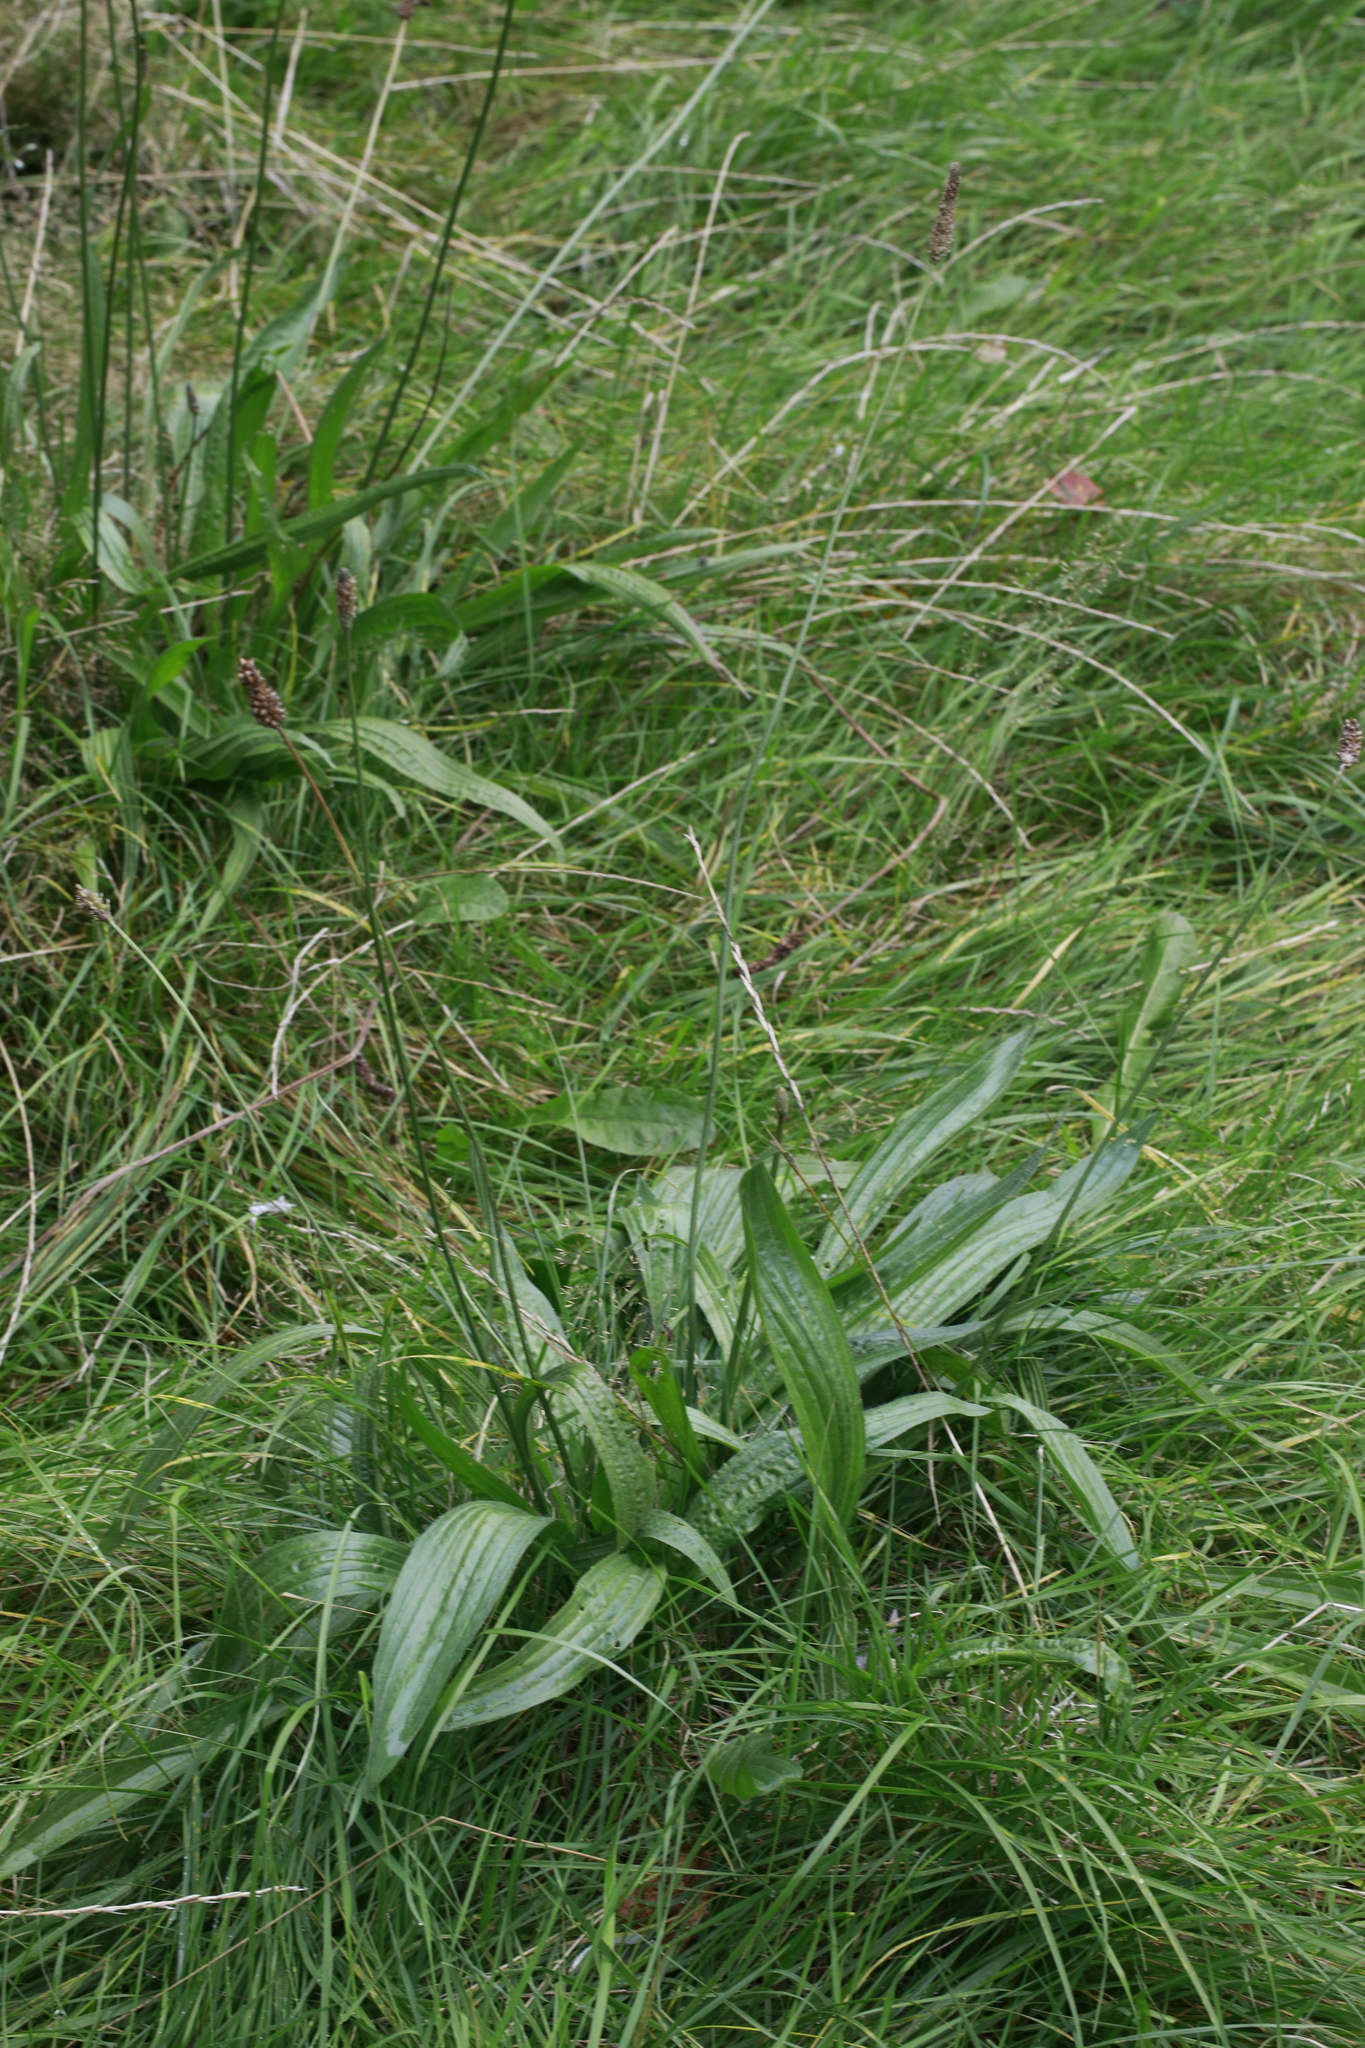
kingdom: Plantae
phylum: Tracheophyta
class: Magnoliopsida
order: Lamiales
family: Plantaginaceae
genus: Plantago
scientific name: Plantago lanceolata
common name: Ribwort plantain
